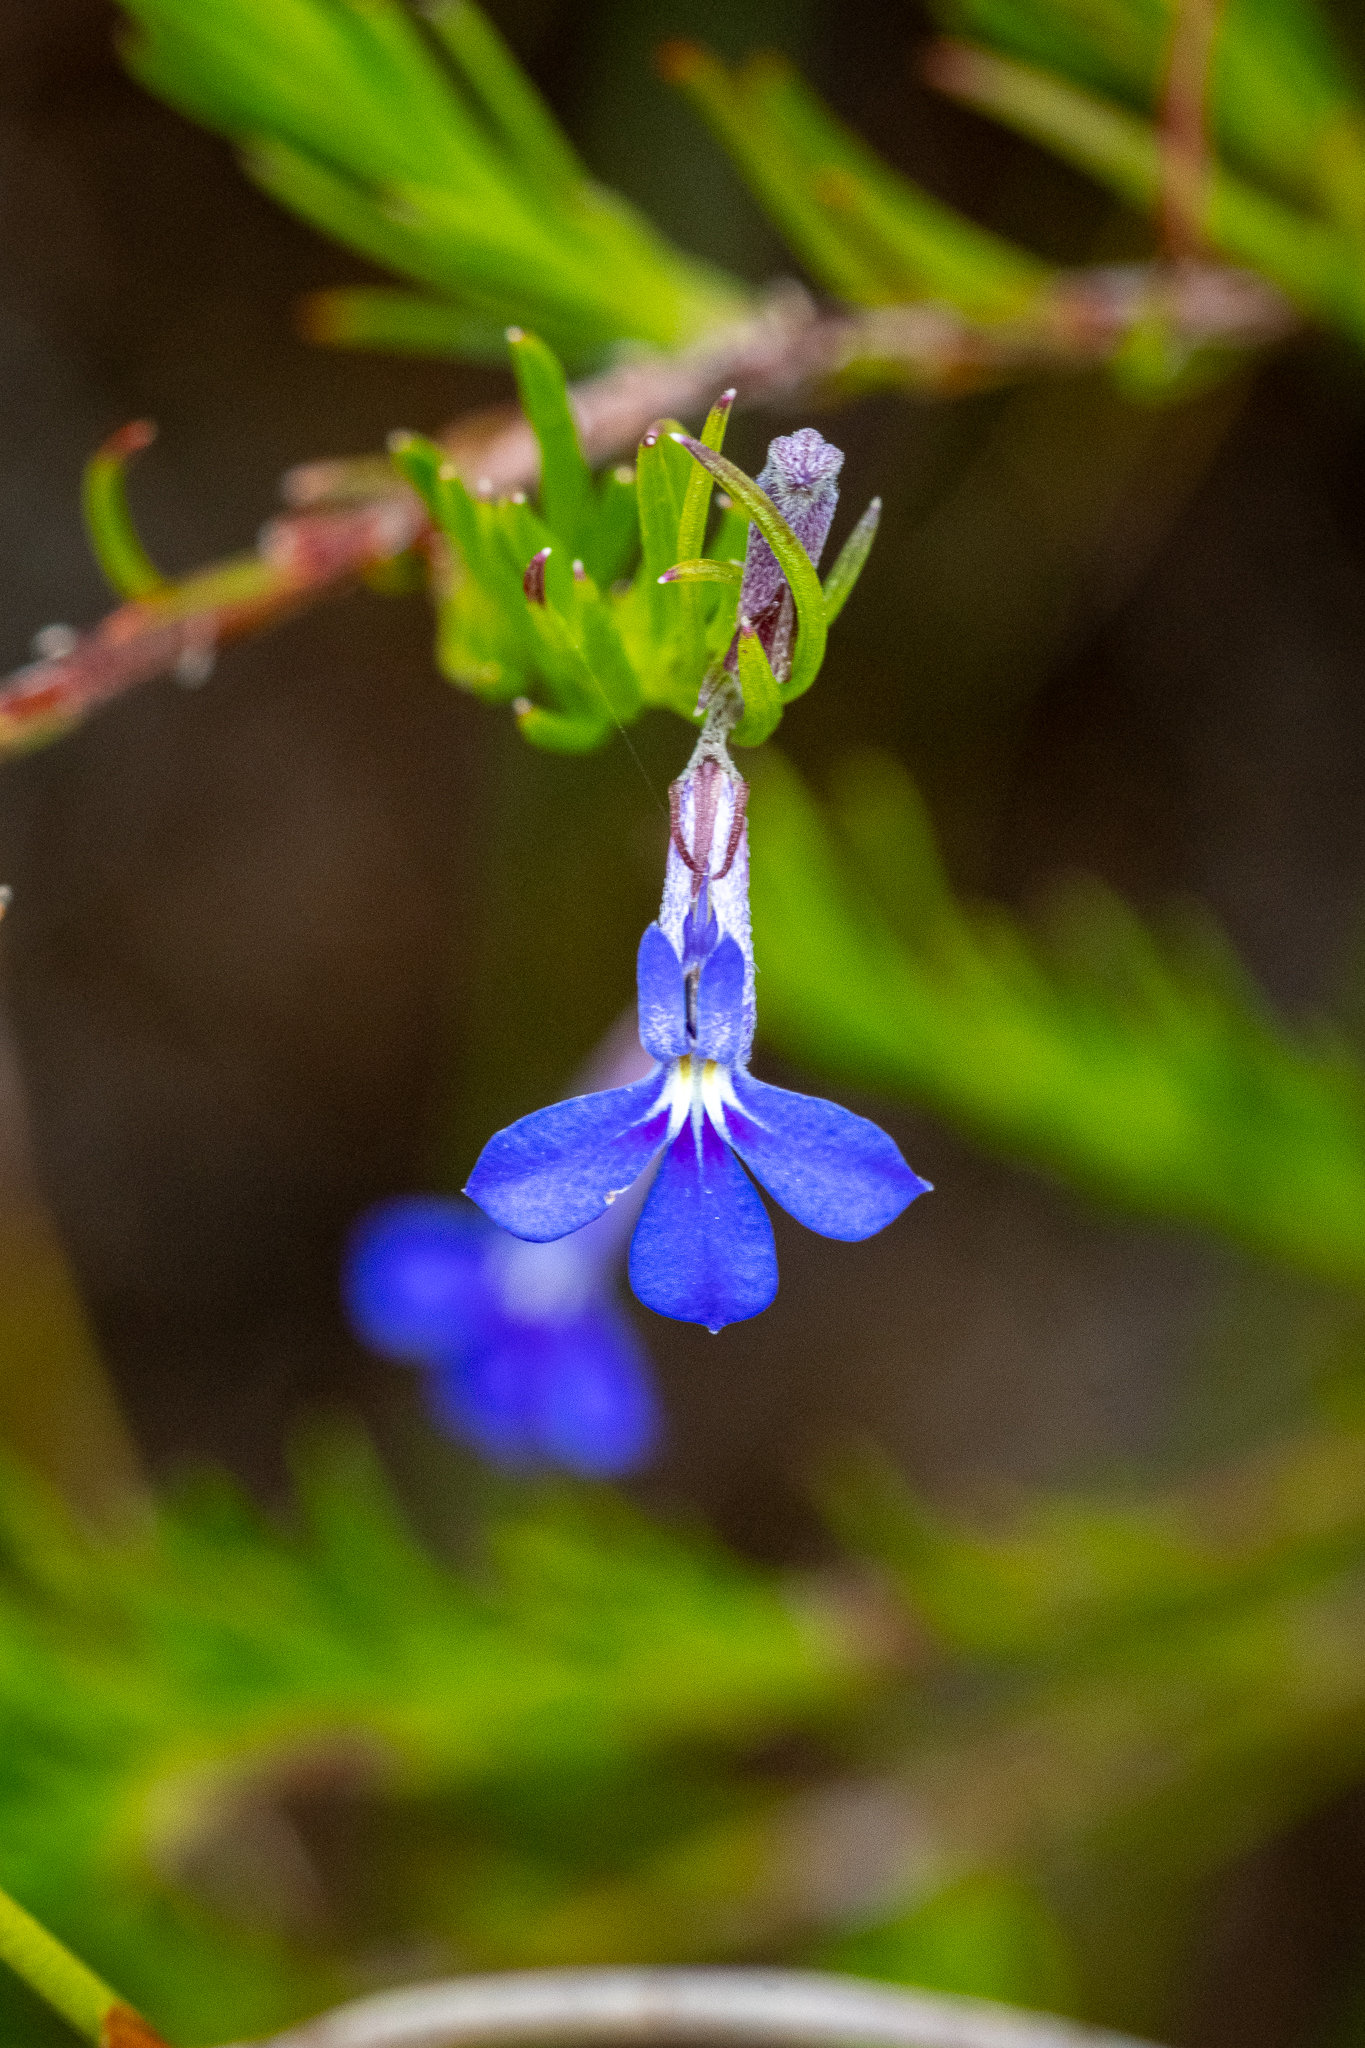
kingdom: Plantae
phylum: Tracheophyta
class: Magnoliopsida
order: Asterales
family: Campanulaceae
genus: Lobelia
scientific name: Lobelia pinifolia
